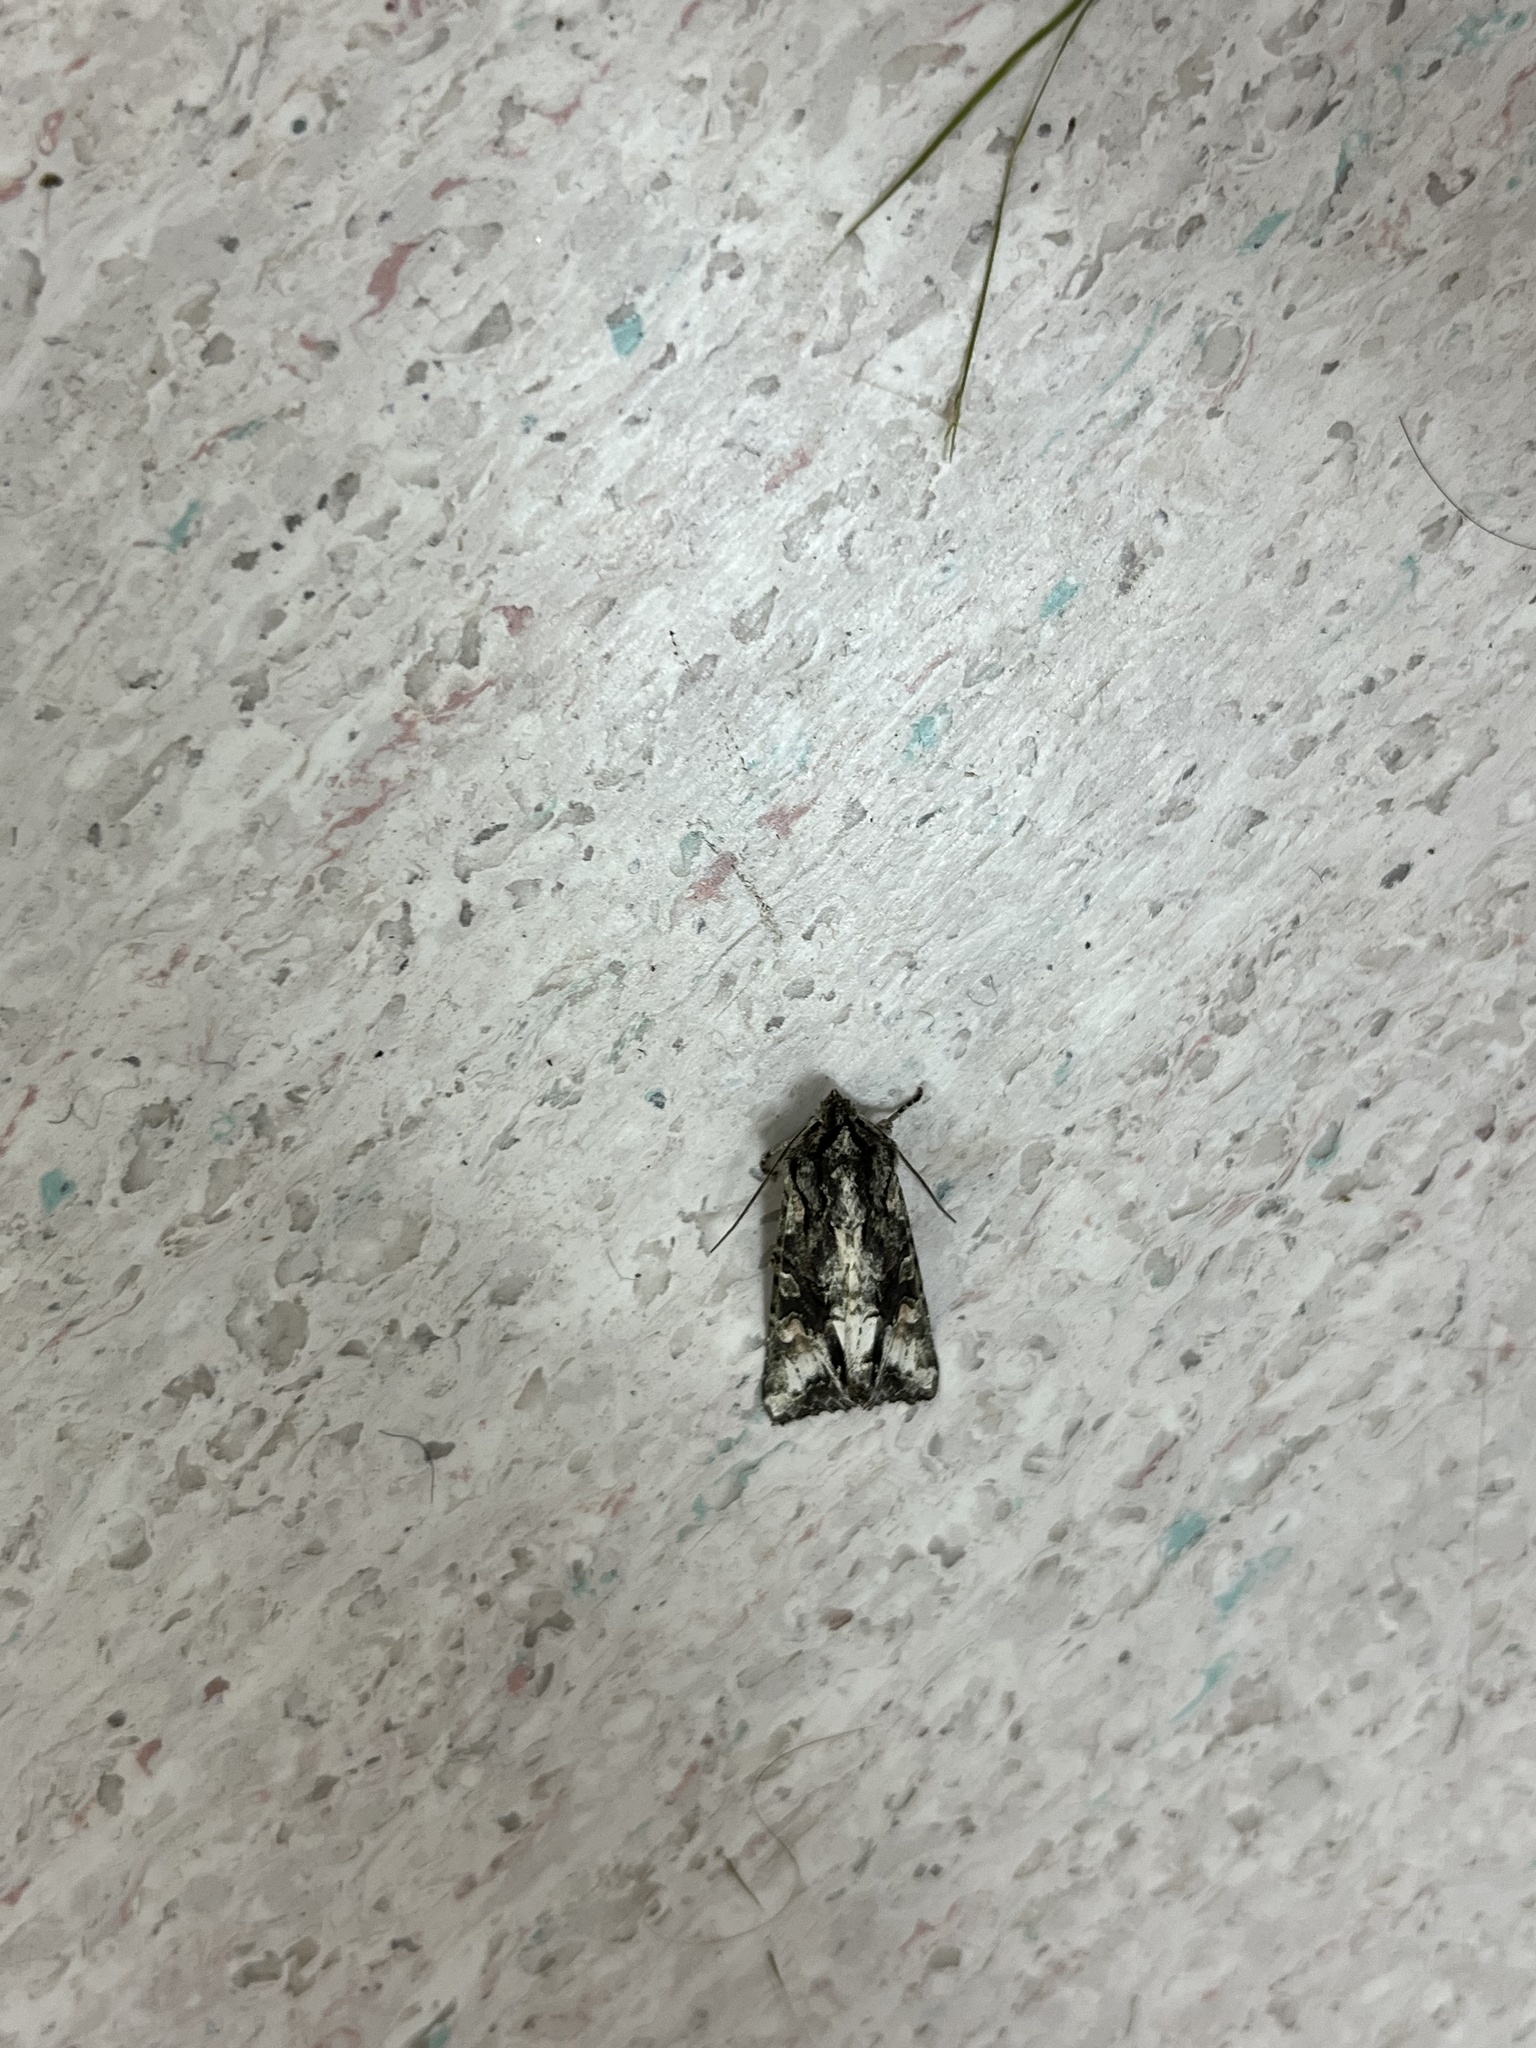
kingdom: Animalia
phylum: Arthropoda
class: Insecta
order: Lepidoptera
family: Noctuidae
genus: Ichneutica
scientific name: Ichneutica
